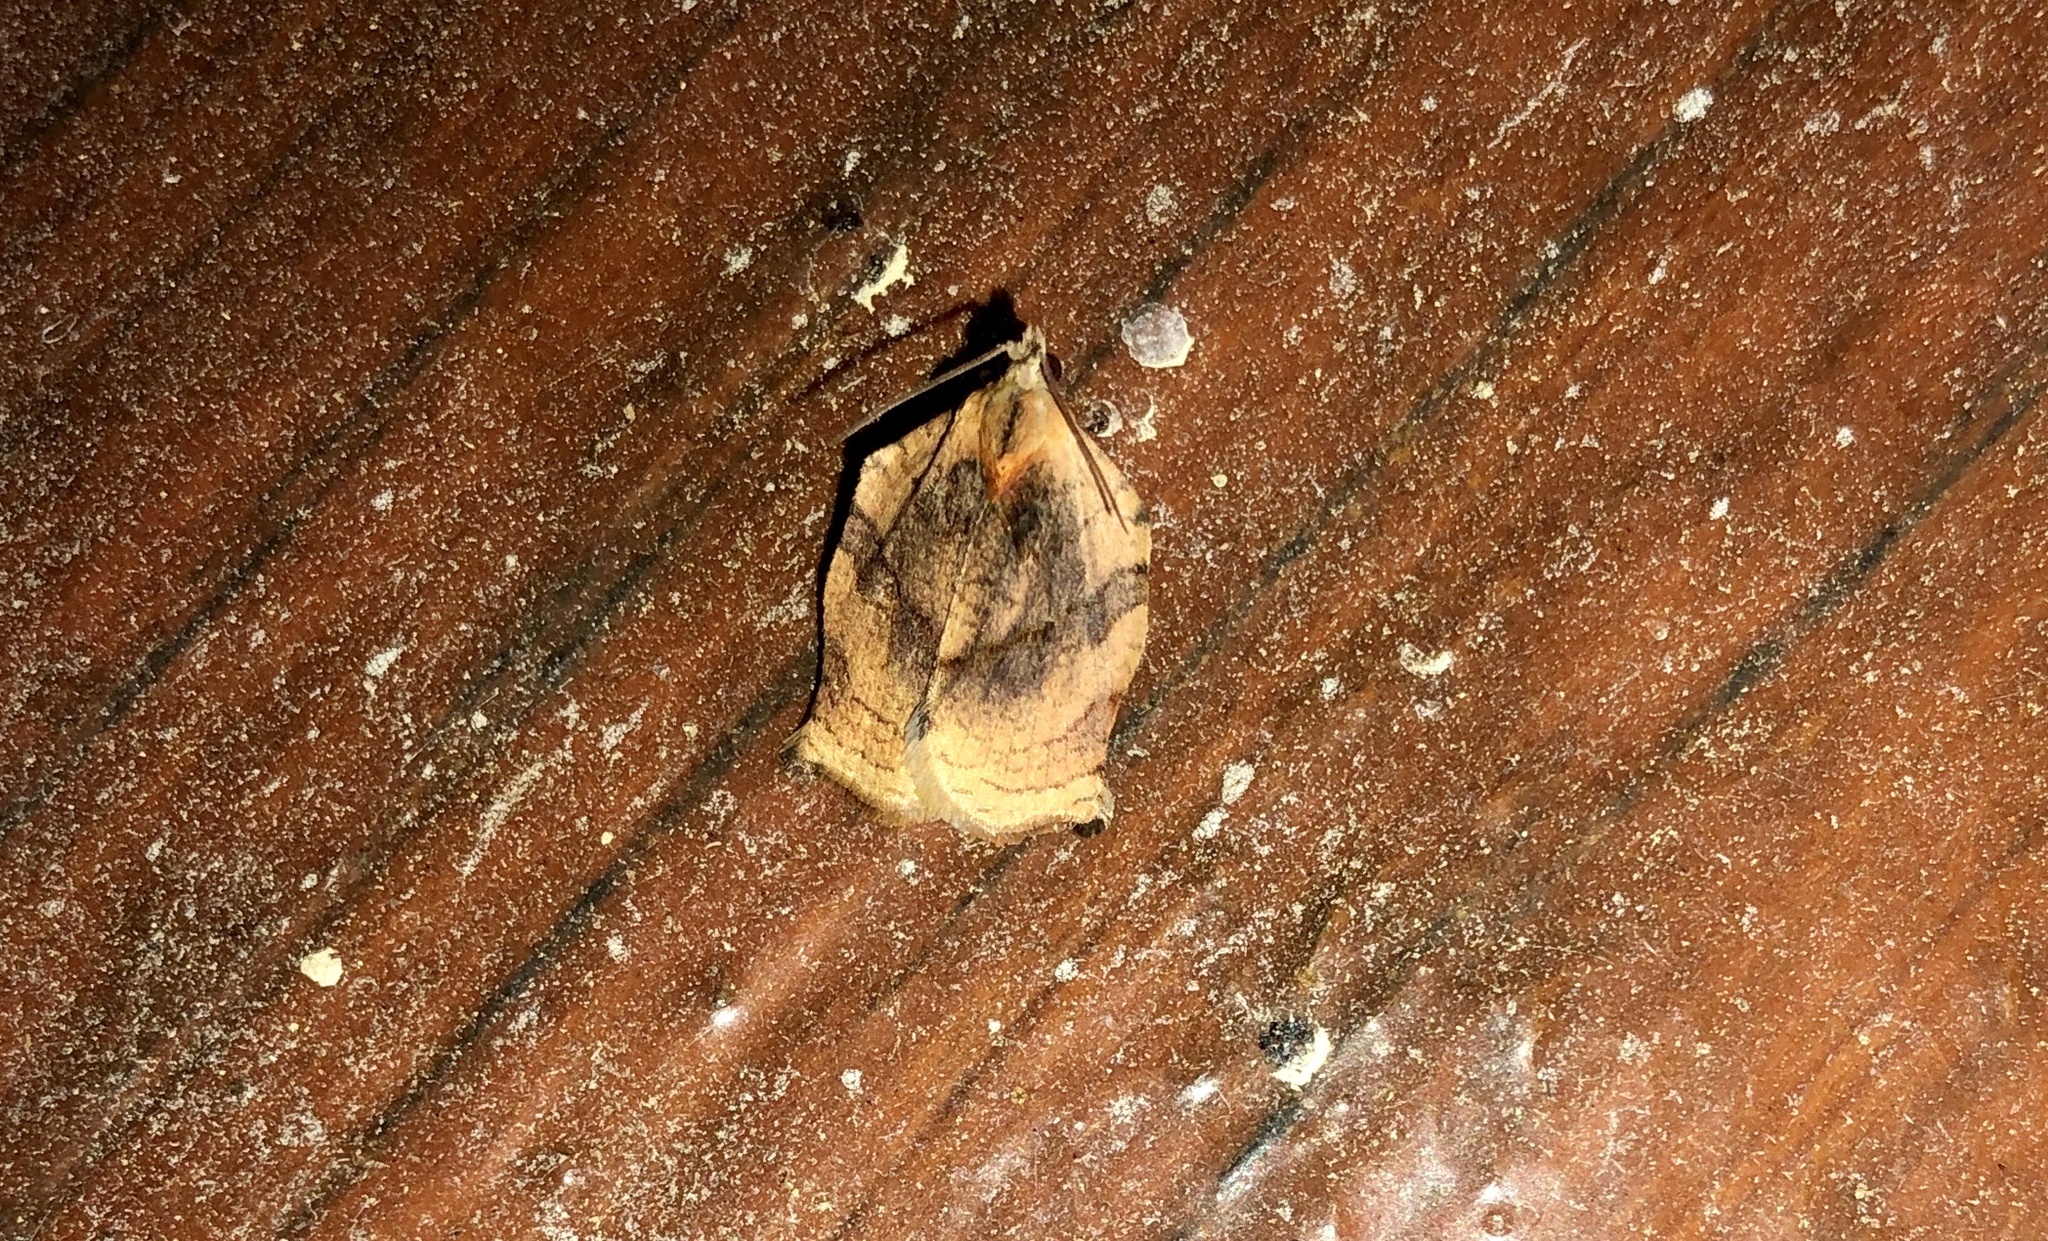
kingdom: Animalia
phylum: Arthropoda
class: Insecta
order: Lepidoptera
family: Tortricidae
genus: Archips
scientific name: Archips purpurana
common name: Omnivorous leafroller
